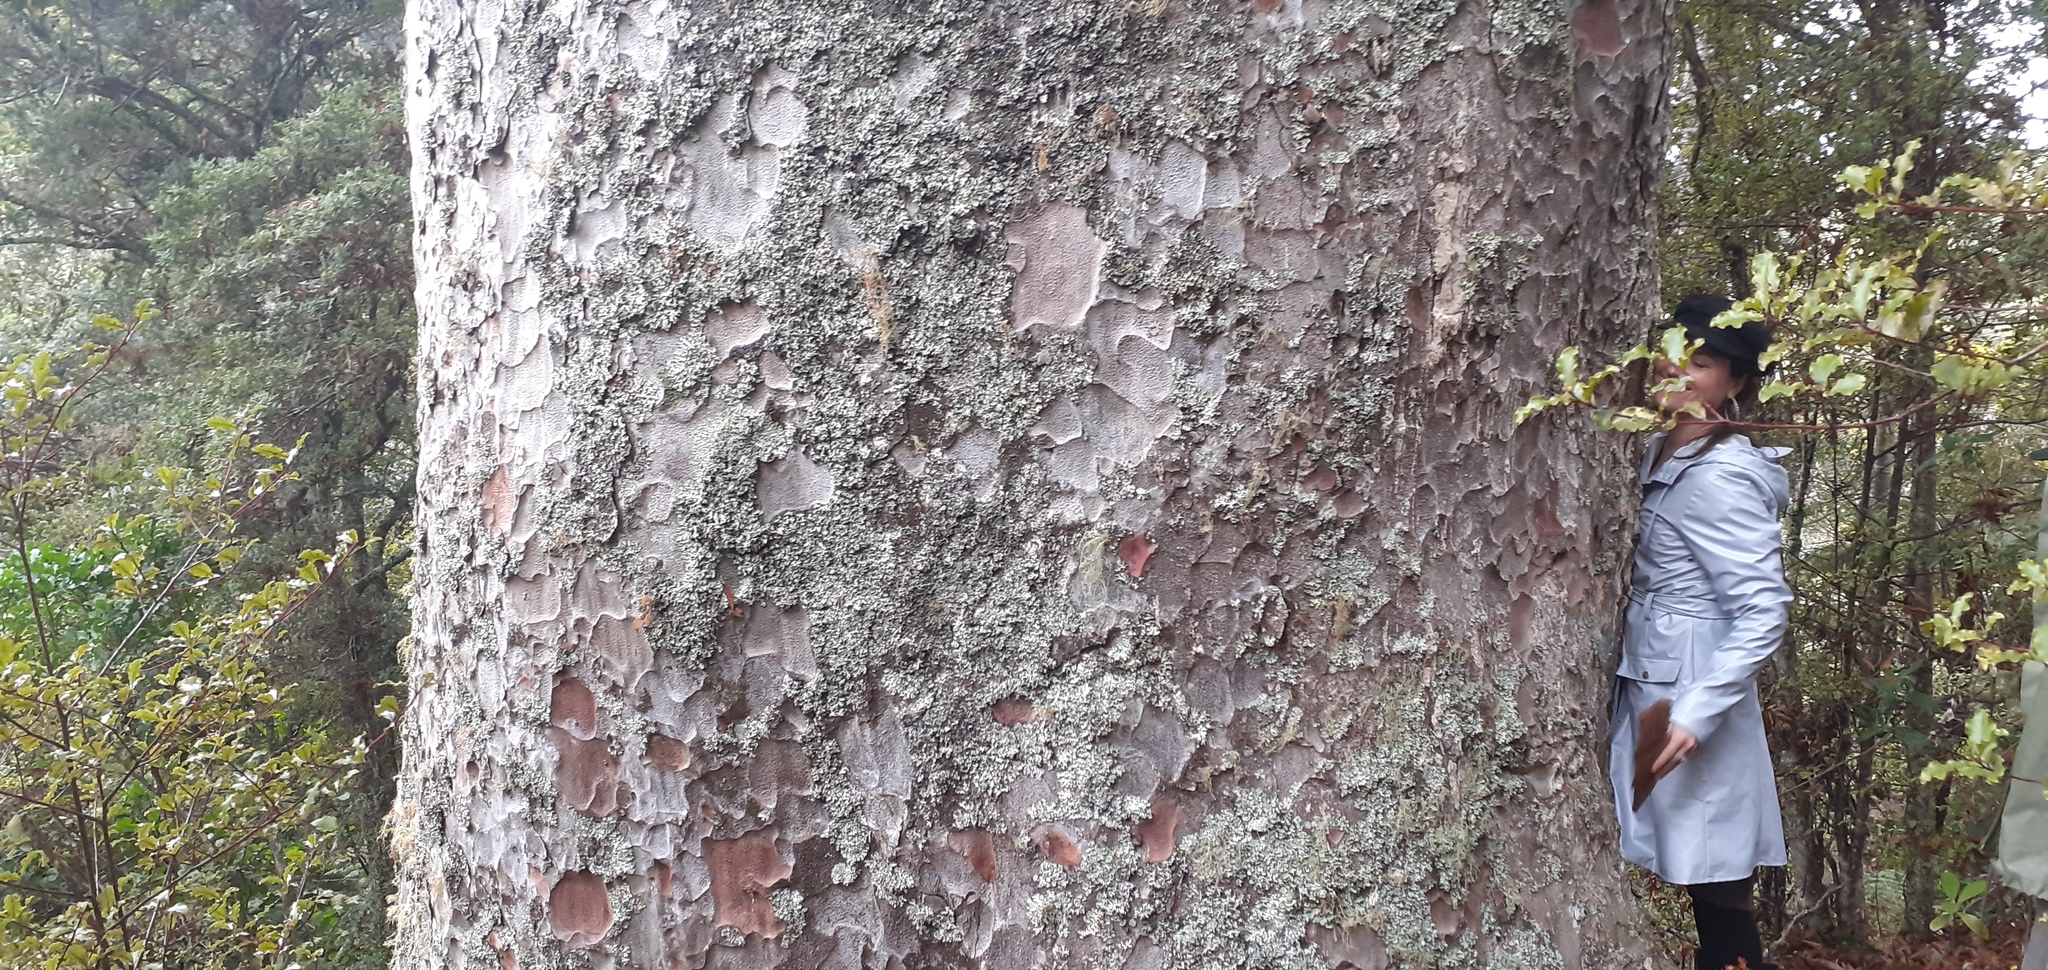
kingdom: Plantae
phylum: Tracheophyta
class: Pinopsida
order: Pinales
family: Araucariaceae
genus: Agathis
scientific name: Agathis australis
